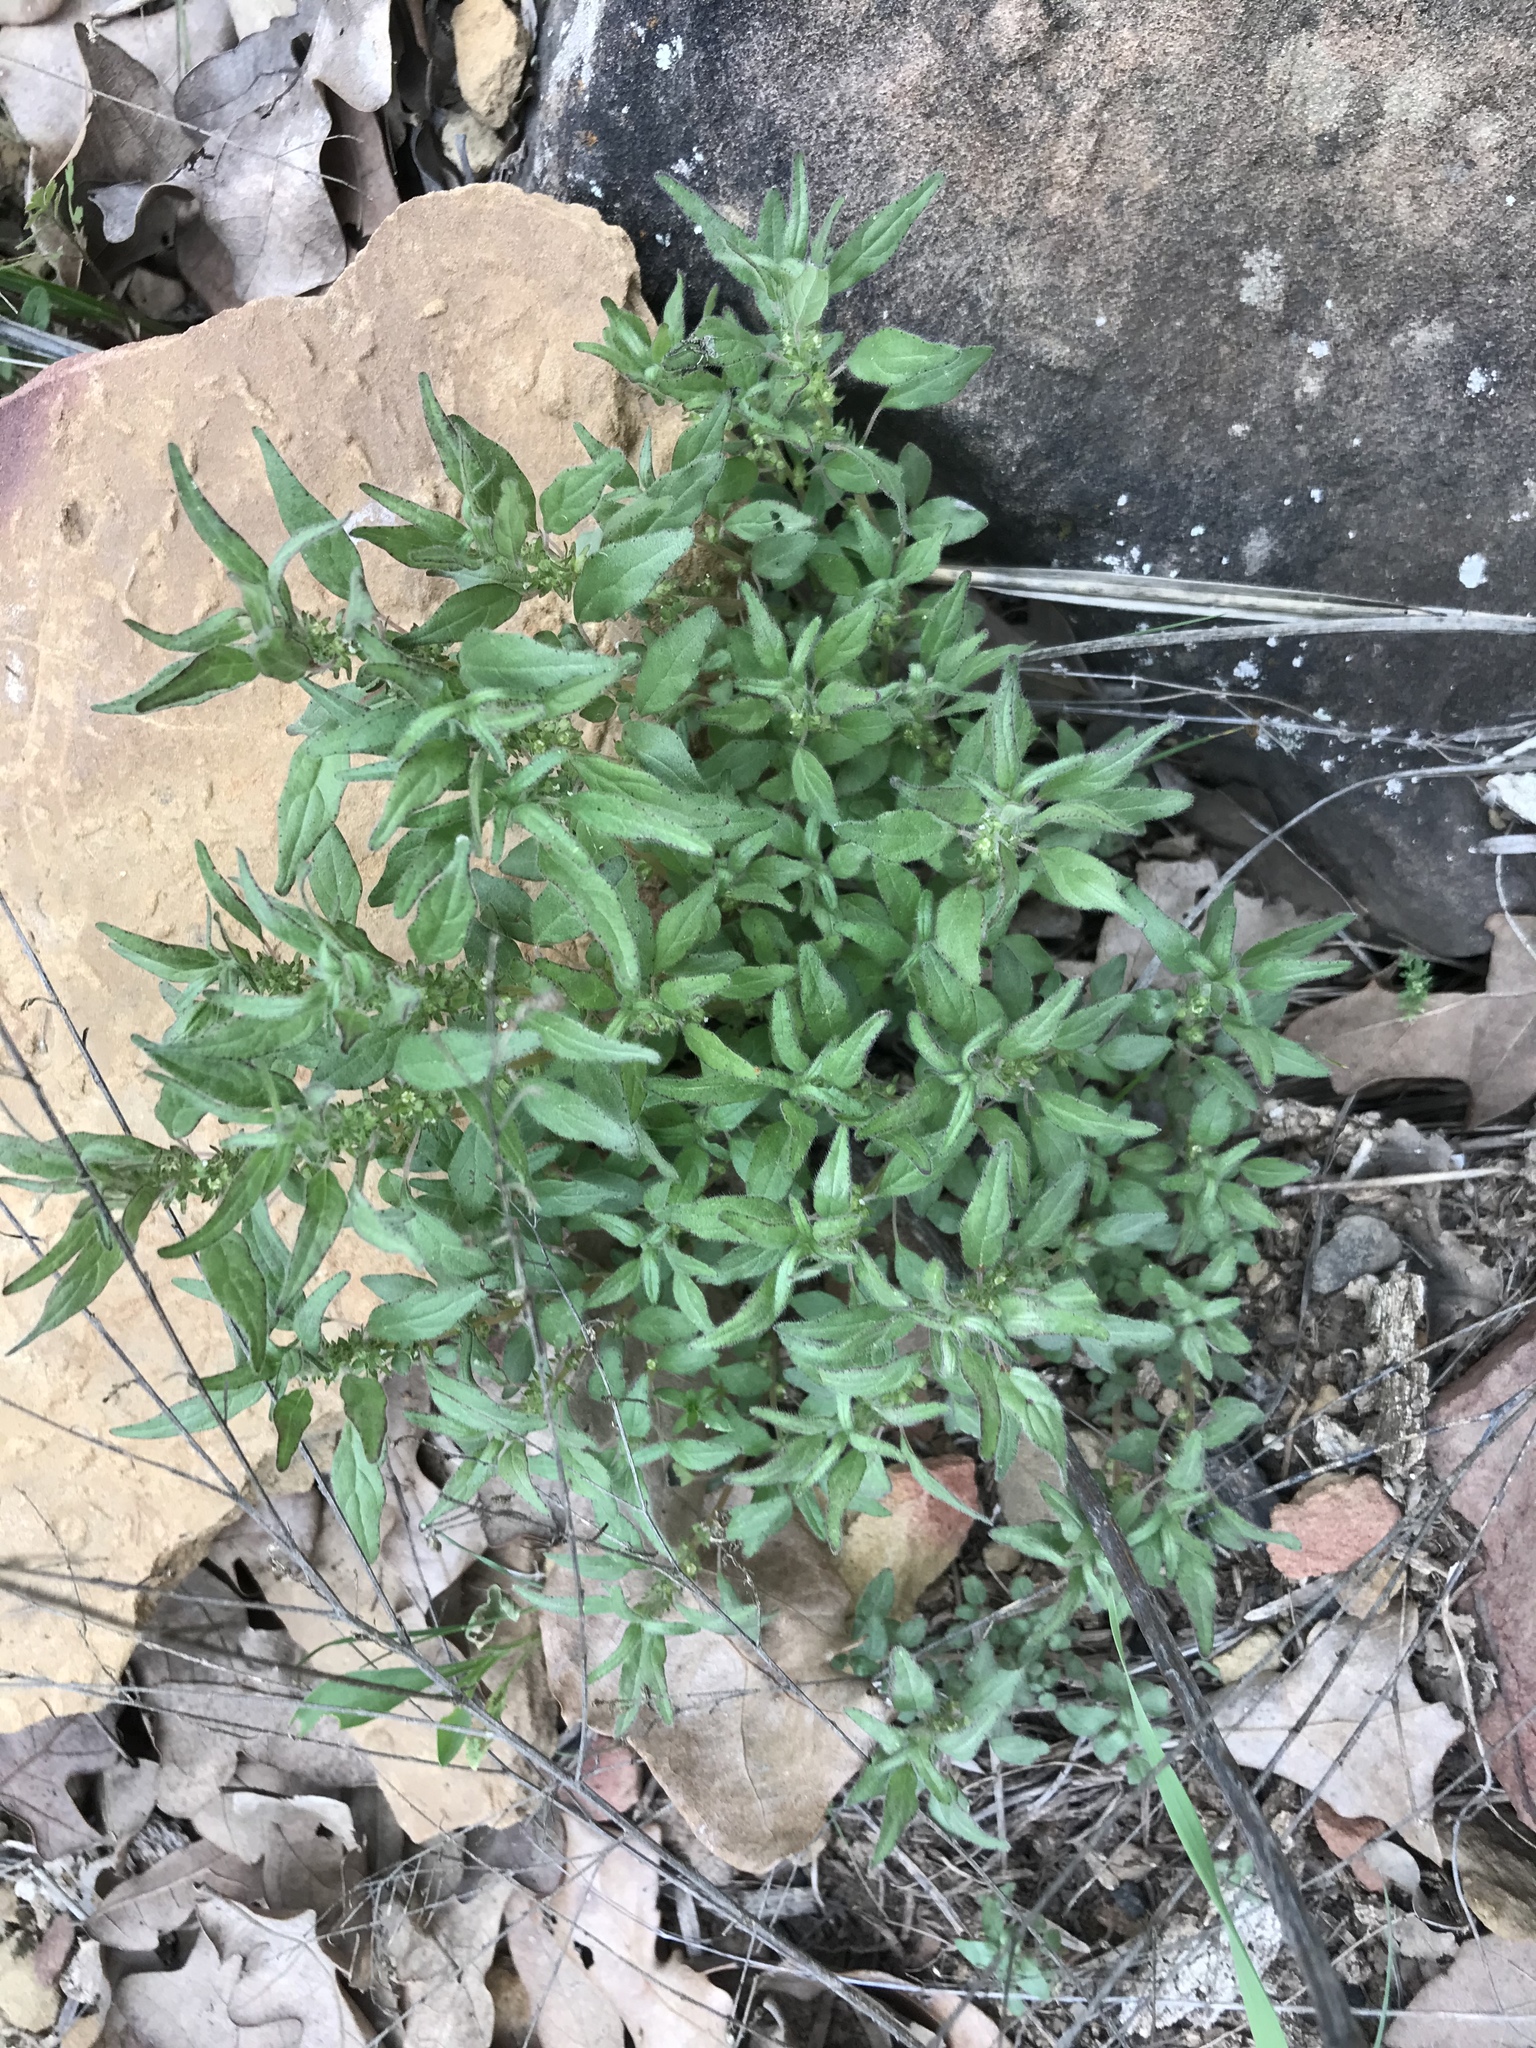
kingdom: Plantae
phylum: Tracheophyta
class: Magnoliopsida
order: Rosales
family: Urticaceae
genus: Parietaria
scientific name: Parietaria pensylvanica
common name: Pennsylvania pellitory
